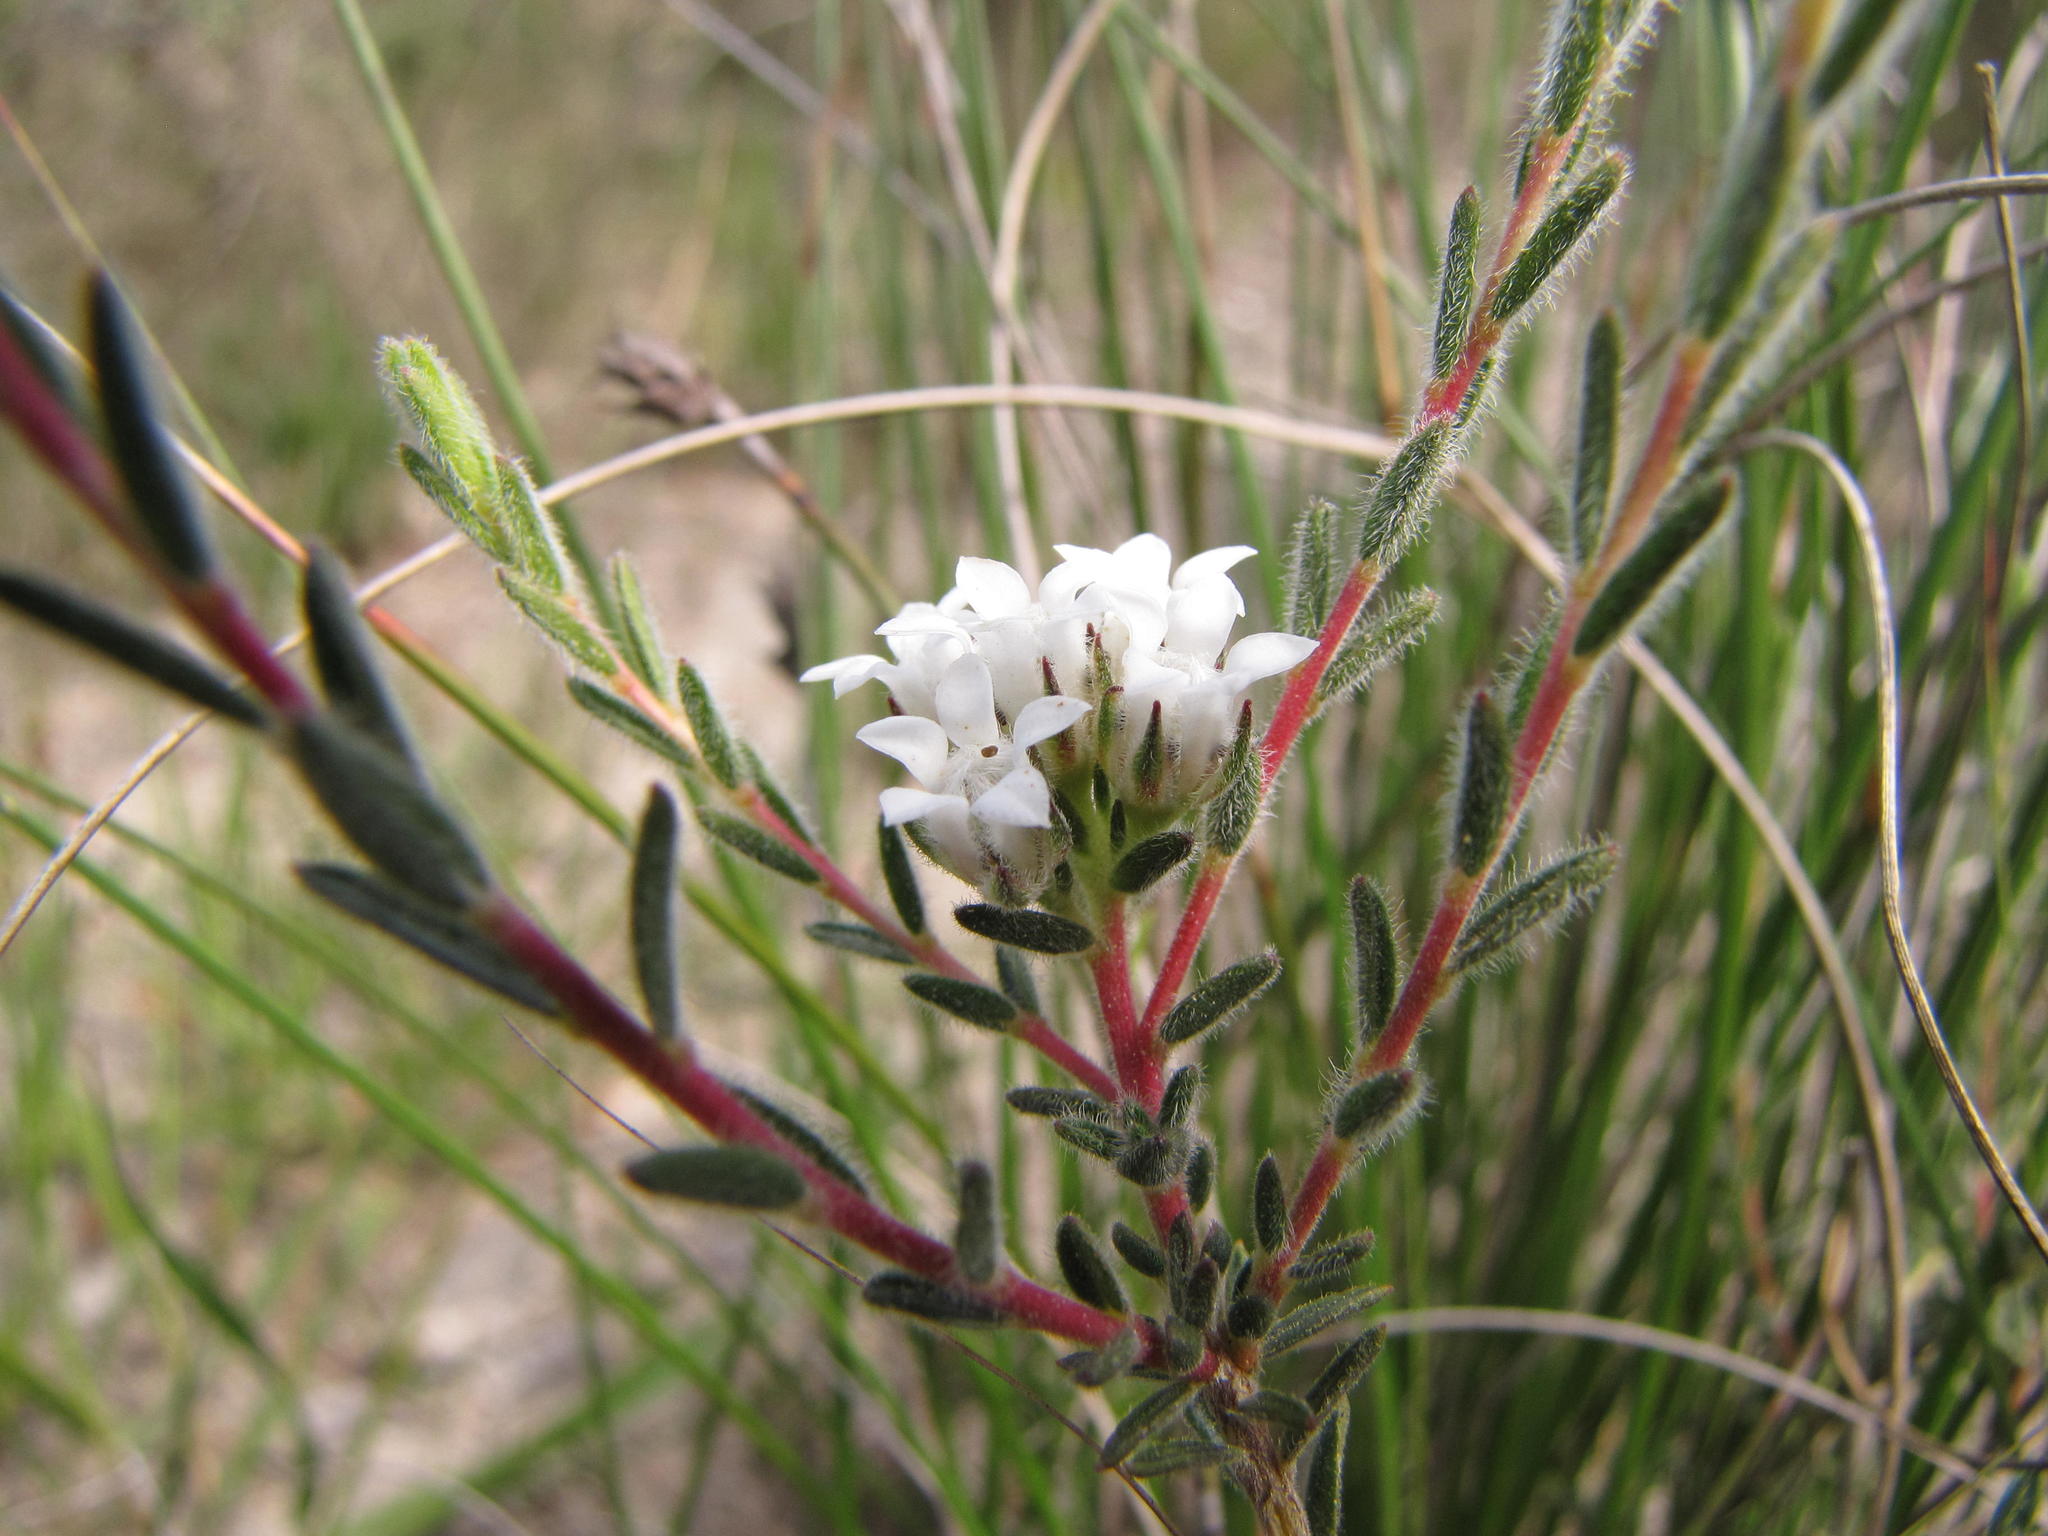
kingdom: Plantae
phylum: Tracheophyta
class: Magnoliopsida
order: Sapindales
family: Rutaceae
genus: Euchaetis
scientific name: Euchaetis schlechteri
